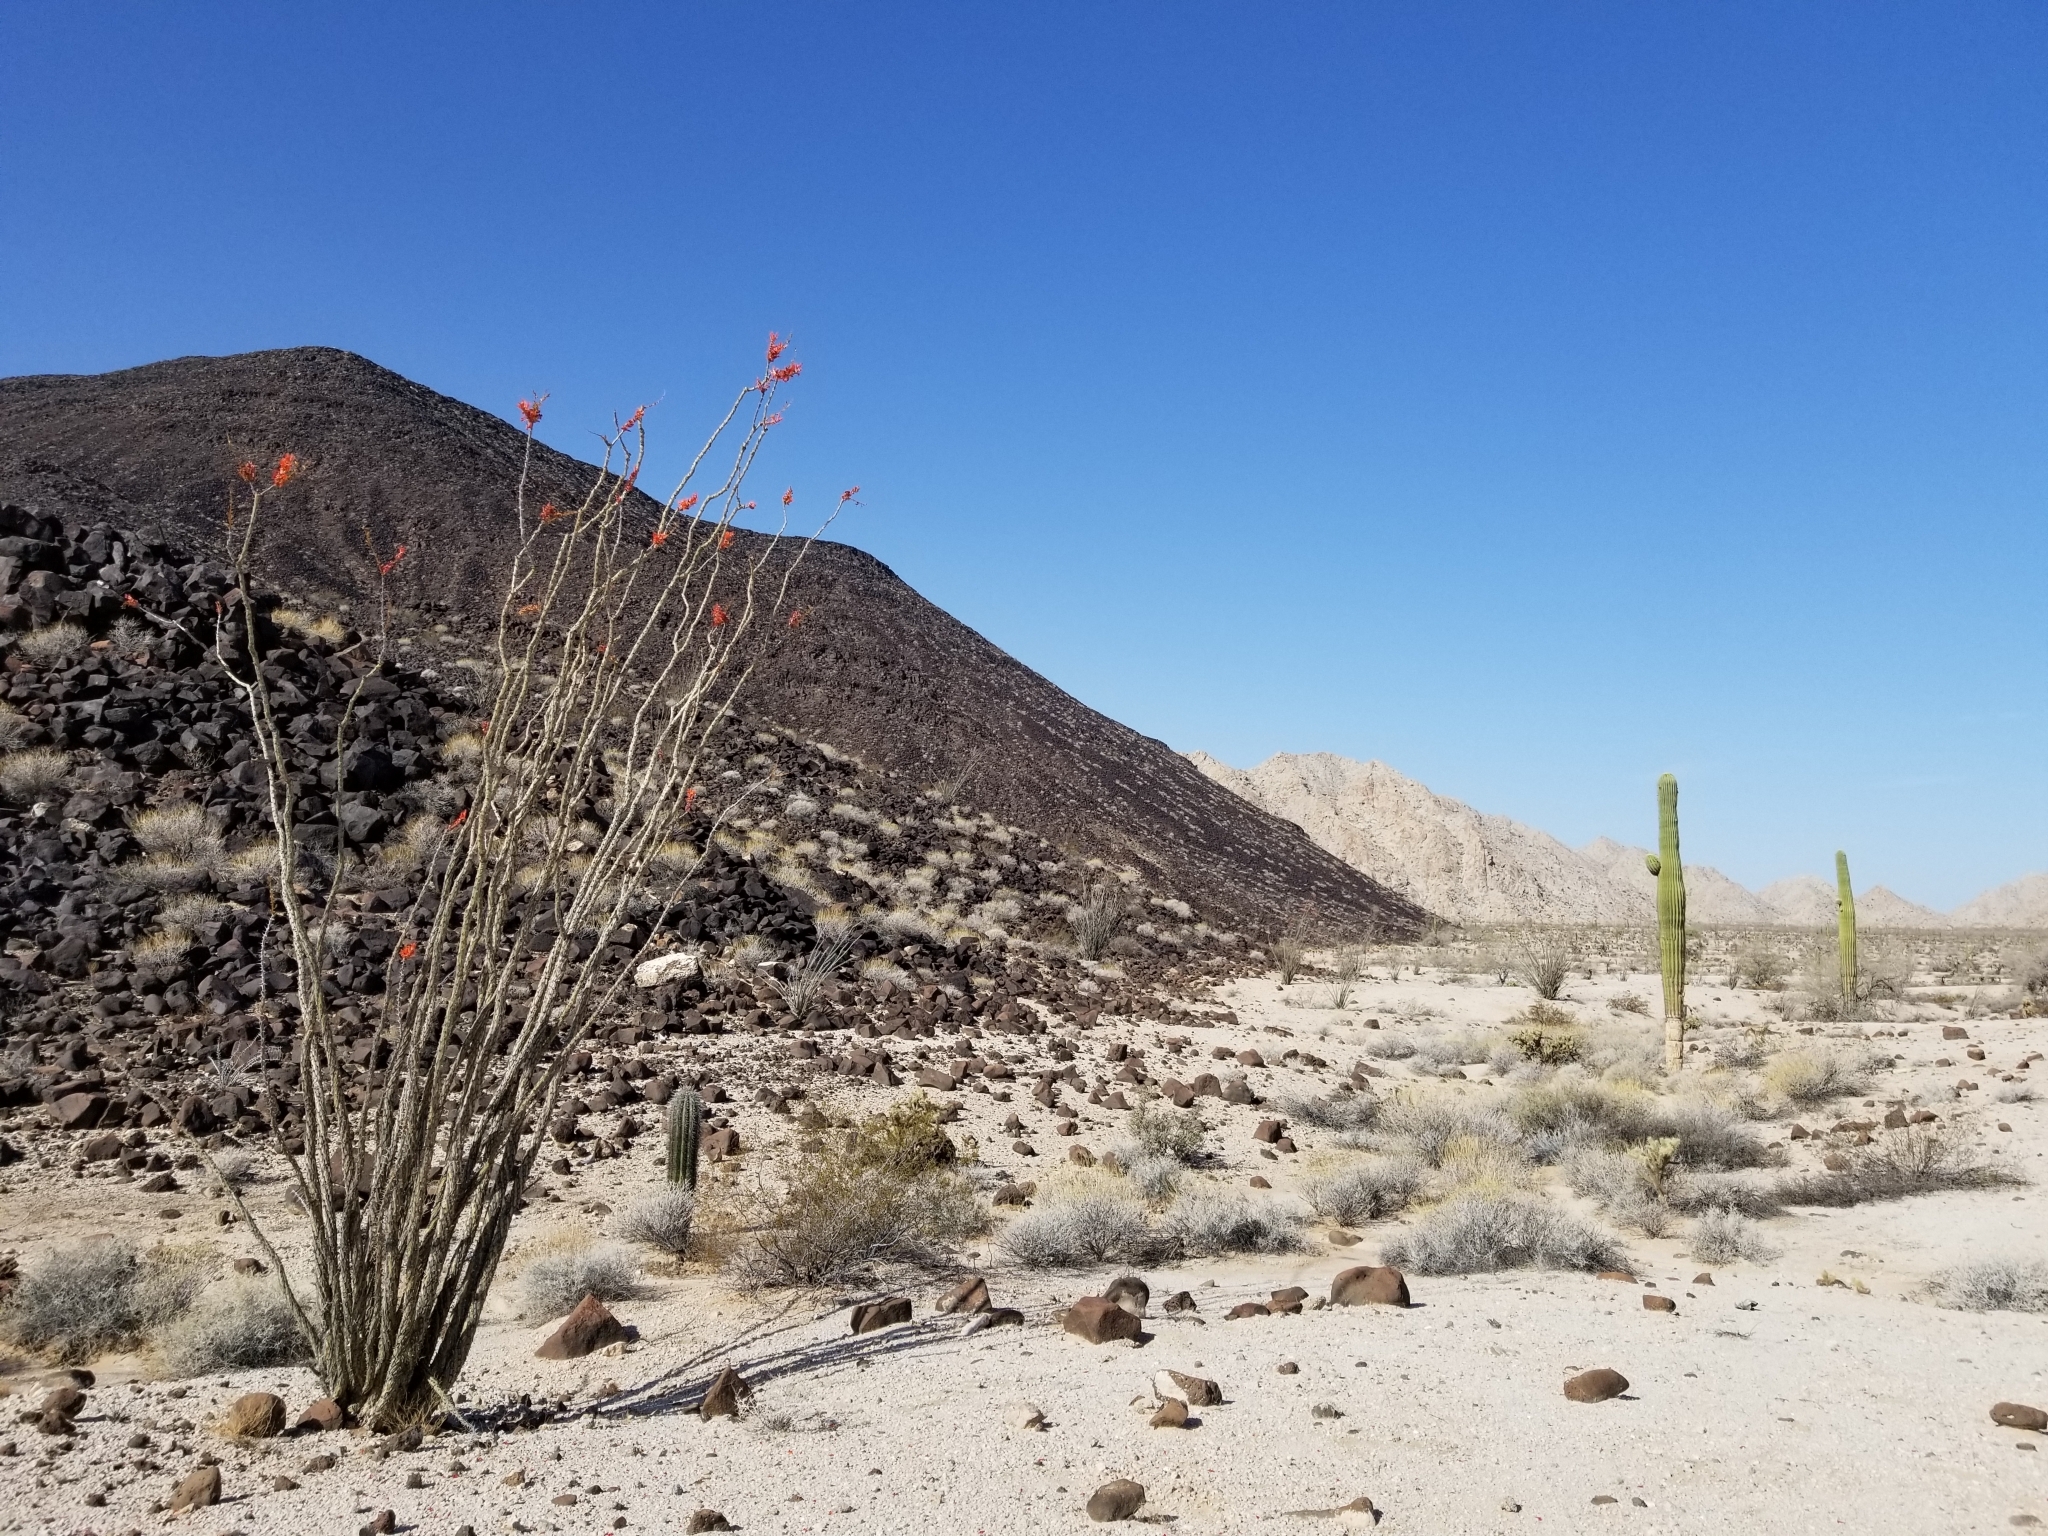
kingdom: Plantae
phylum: Tracheophyta
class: Magnoliopsida
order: Ericales
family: Fouquieriaceae
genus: Fouquieria
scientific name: Fouquieria splendens
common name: Vine-cactus
